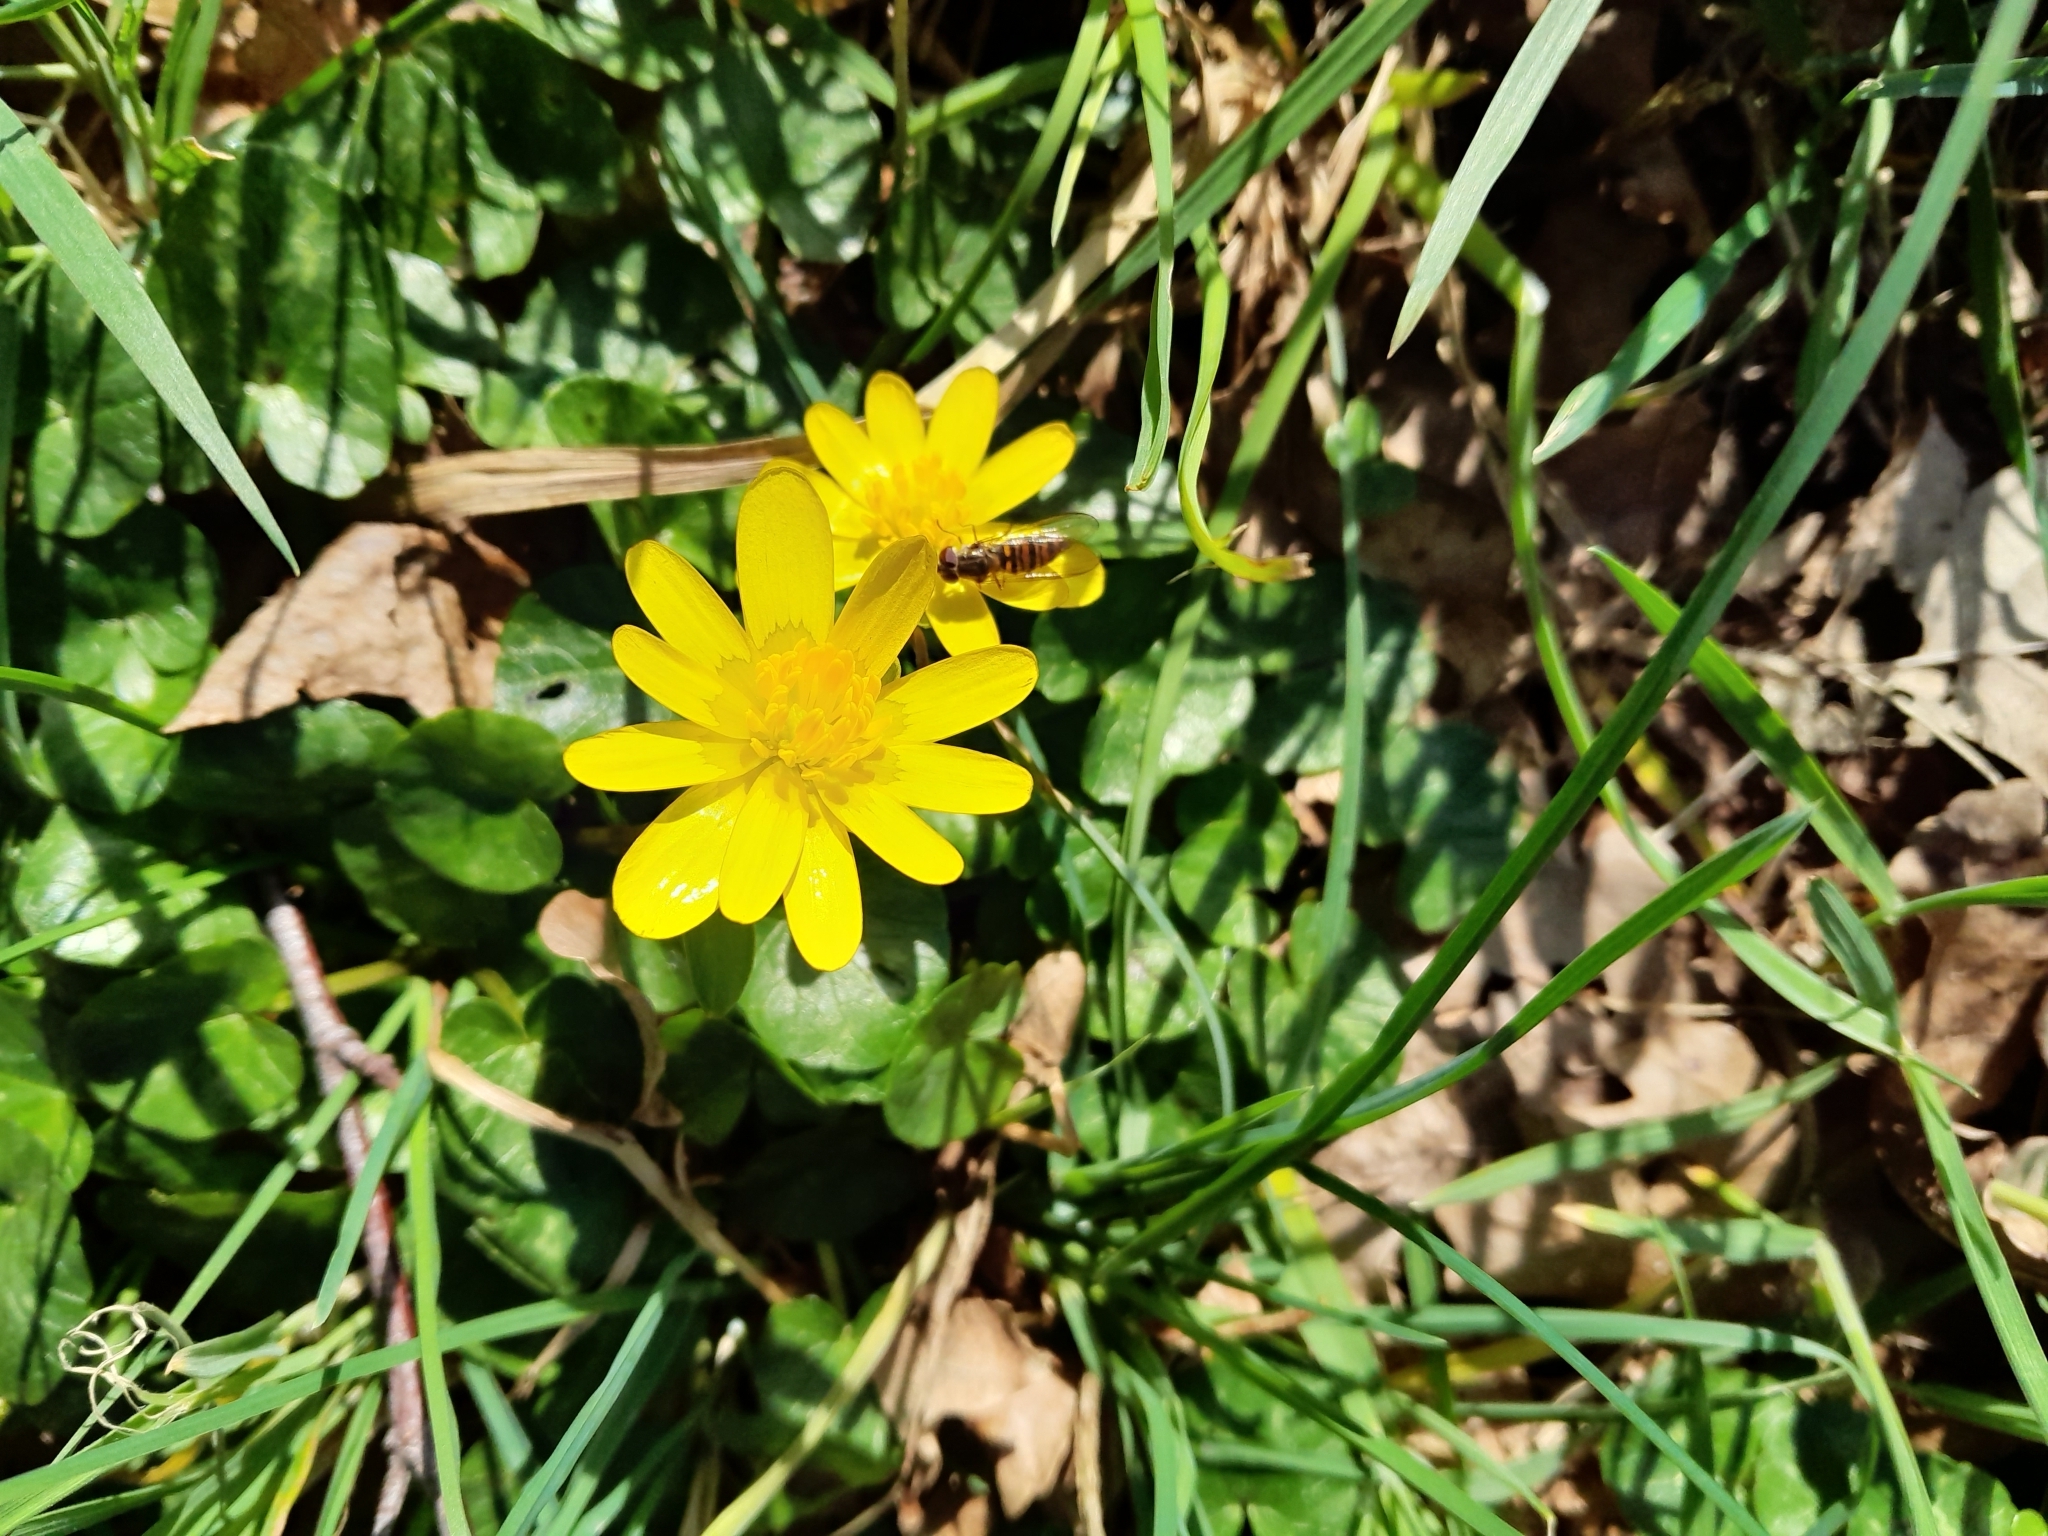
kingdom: Animalia
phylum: Arthropoda
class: Insecta
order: Diptera
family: Syrphidae
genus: Episyrphus
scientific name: Episyrphus balteatus
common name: Marmalade hoverfly
